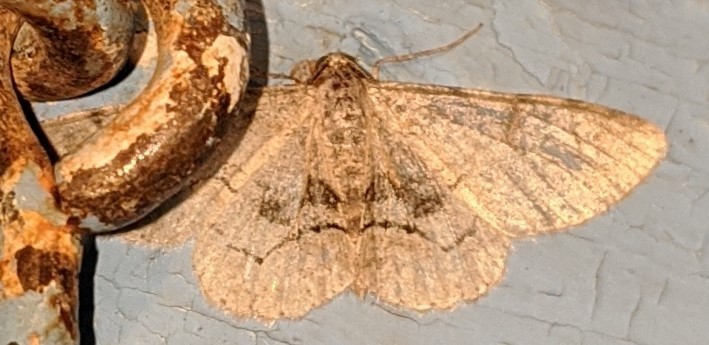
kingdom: Animalia
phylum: Arthropoda
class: Insecta
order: Lepidoptera
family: Geometridae
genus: Iridopsis
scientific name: Iridopsis larvaria
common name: Bent-line gray
